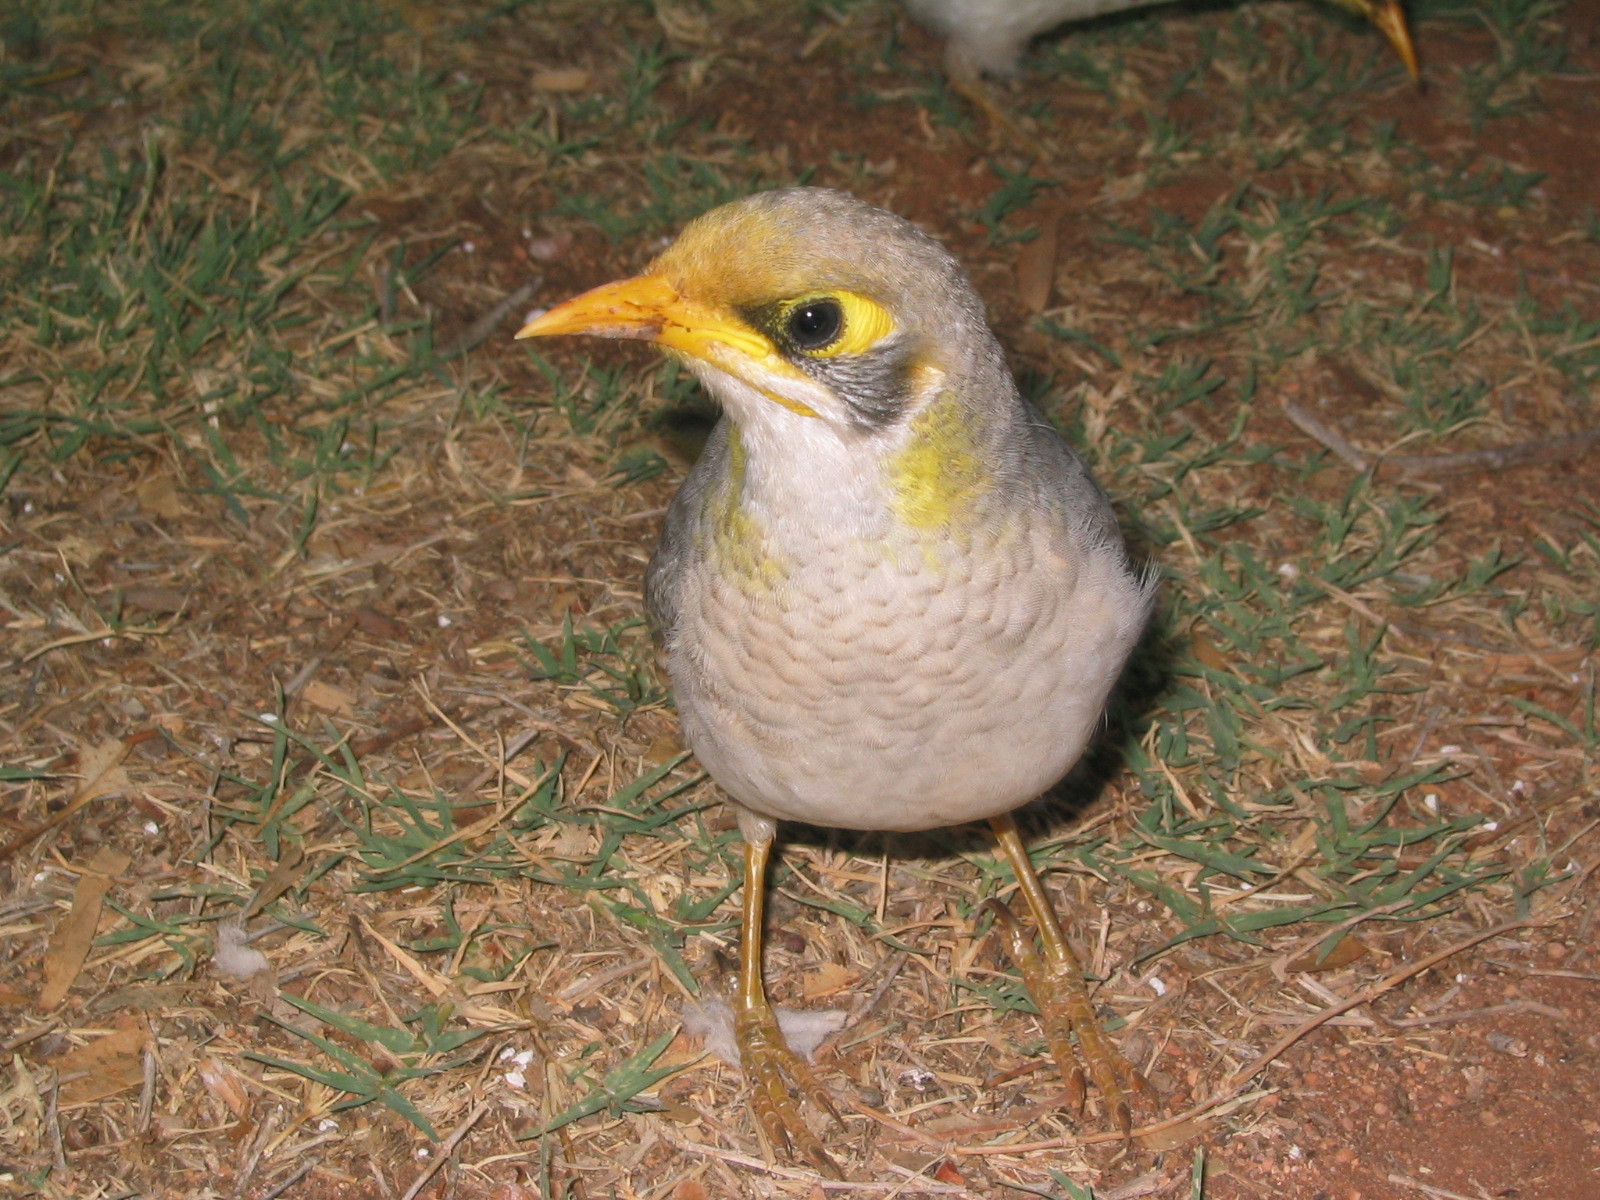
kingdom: Animalia
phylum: Chordata
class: Aves
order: Passeriformes
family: Meliphagidae
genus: Manorina
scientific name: Manorina flavigula
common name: Yellow-throated miner
